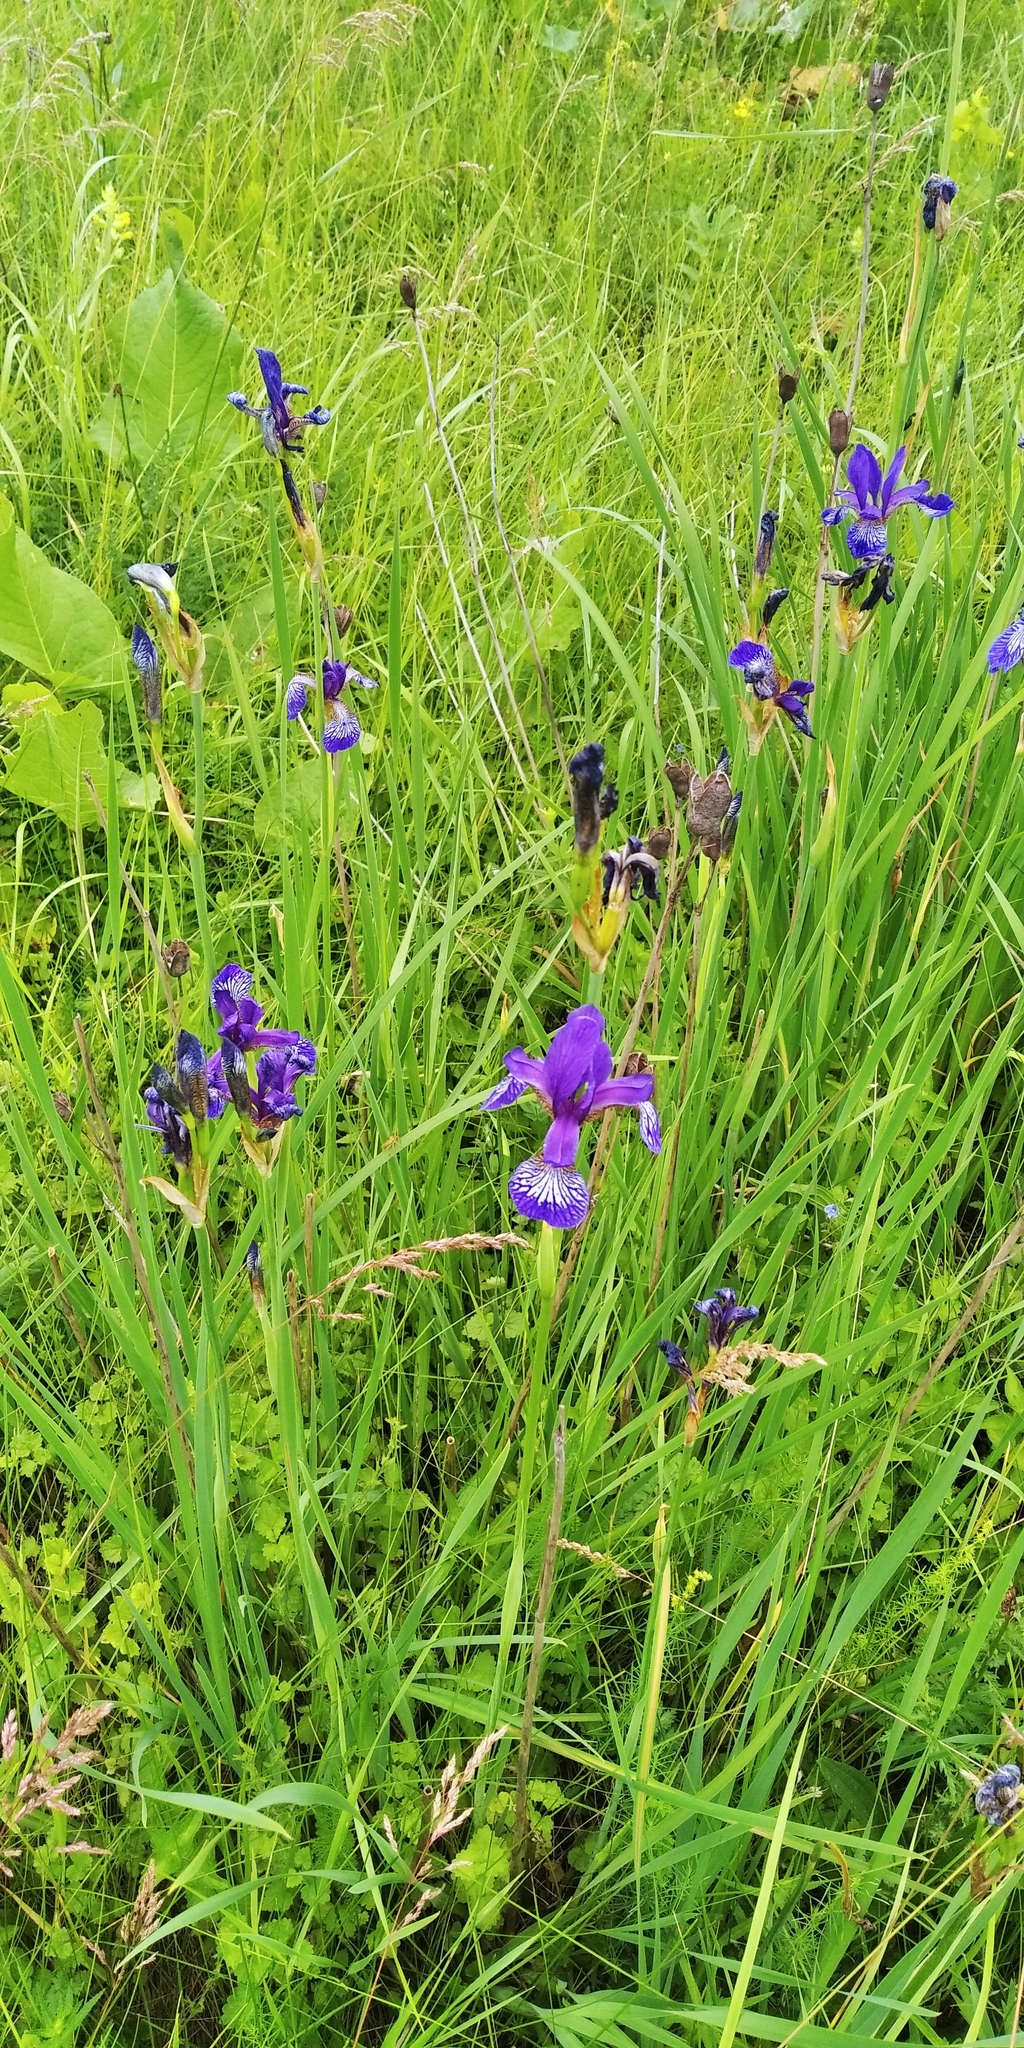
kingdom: Plantae
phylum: Tracheophyta
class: Liliopsida
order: Asparagales
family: Iridaceae
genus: Iris
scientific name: Iris sibirica
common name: Siberian iris
